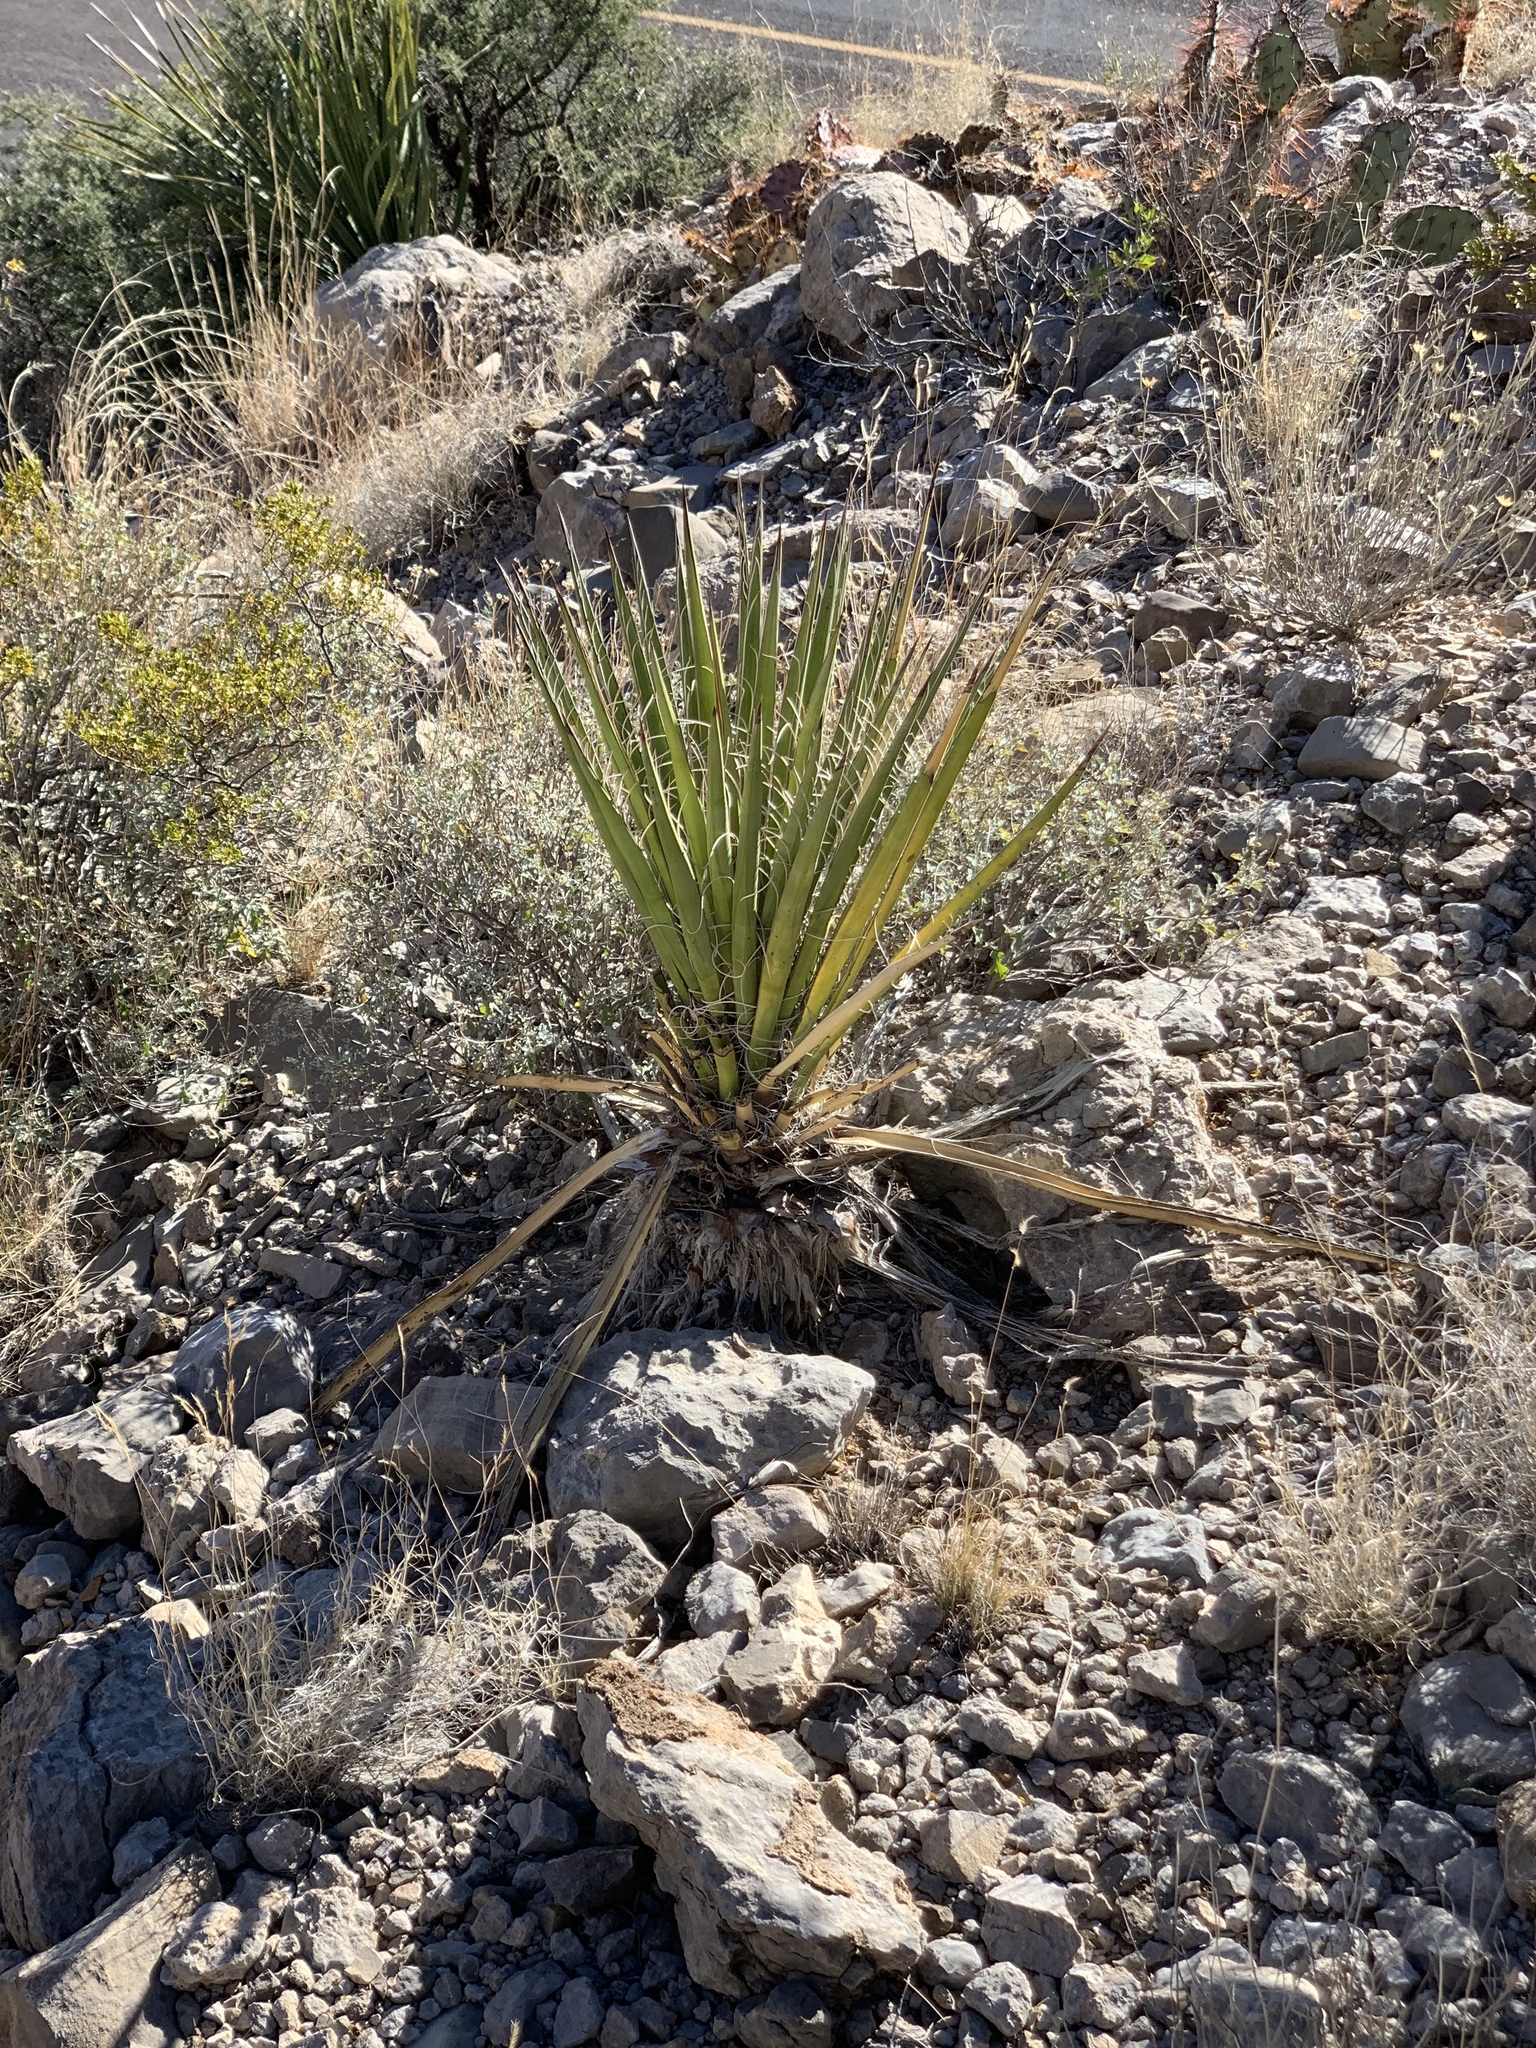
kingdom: Plantae
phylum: Tracheophyta
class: Liliopsida
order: Asparagales
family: Asparagaceae
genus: Yucca
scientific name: Yucca treculiana
